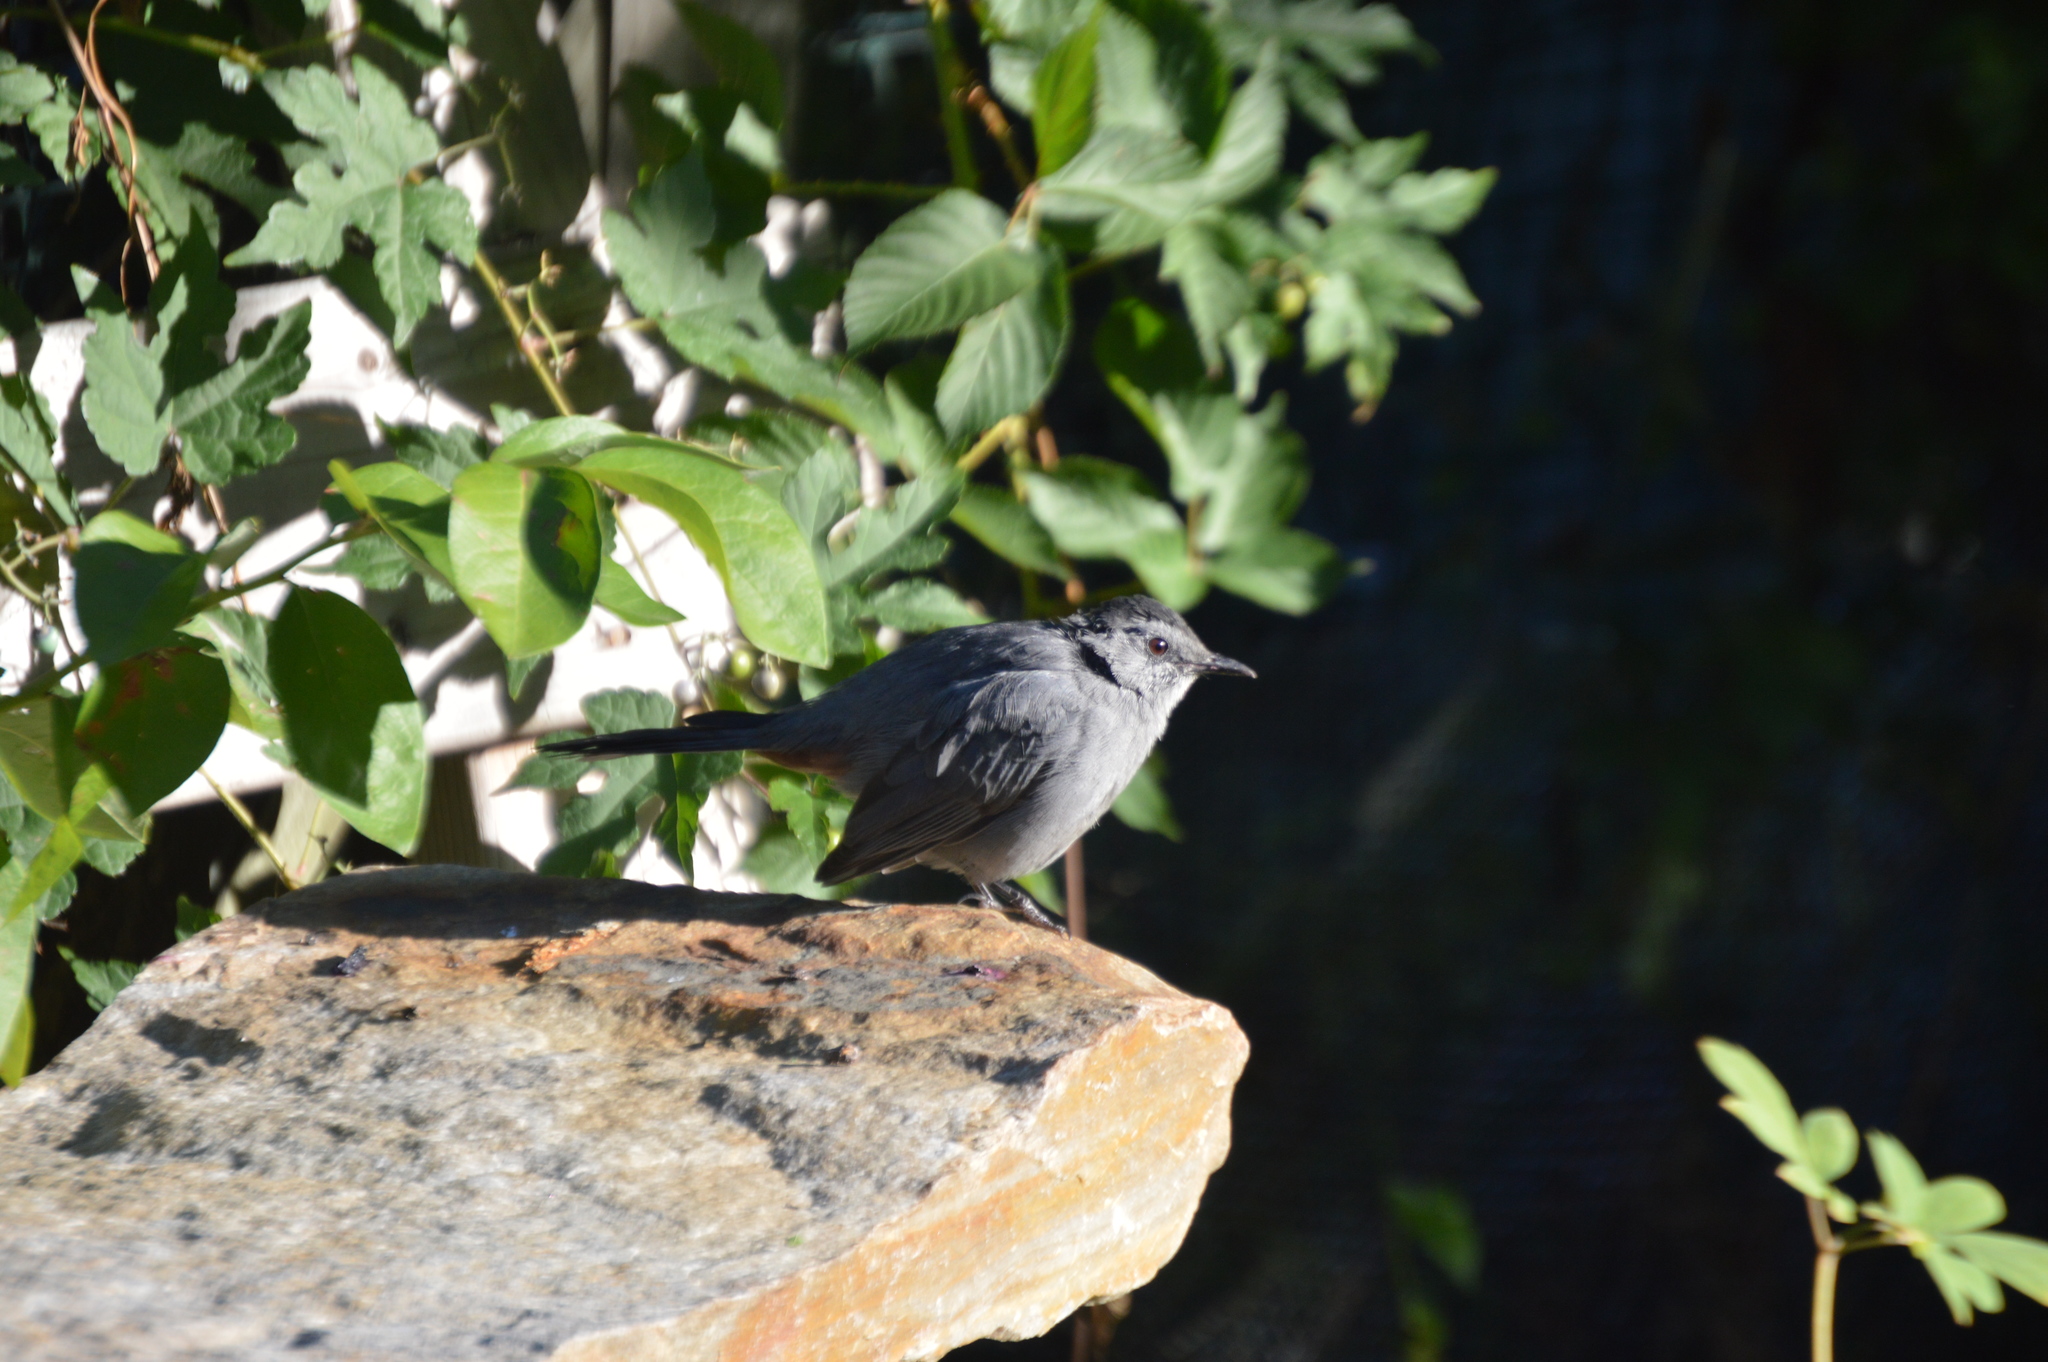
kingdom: Animalia
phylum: Chordata
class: Aves
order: Passeriformes
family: Mimidae
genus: Dumetella
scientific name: Dumetella carolinensis
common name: Gray catbird
